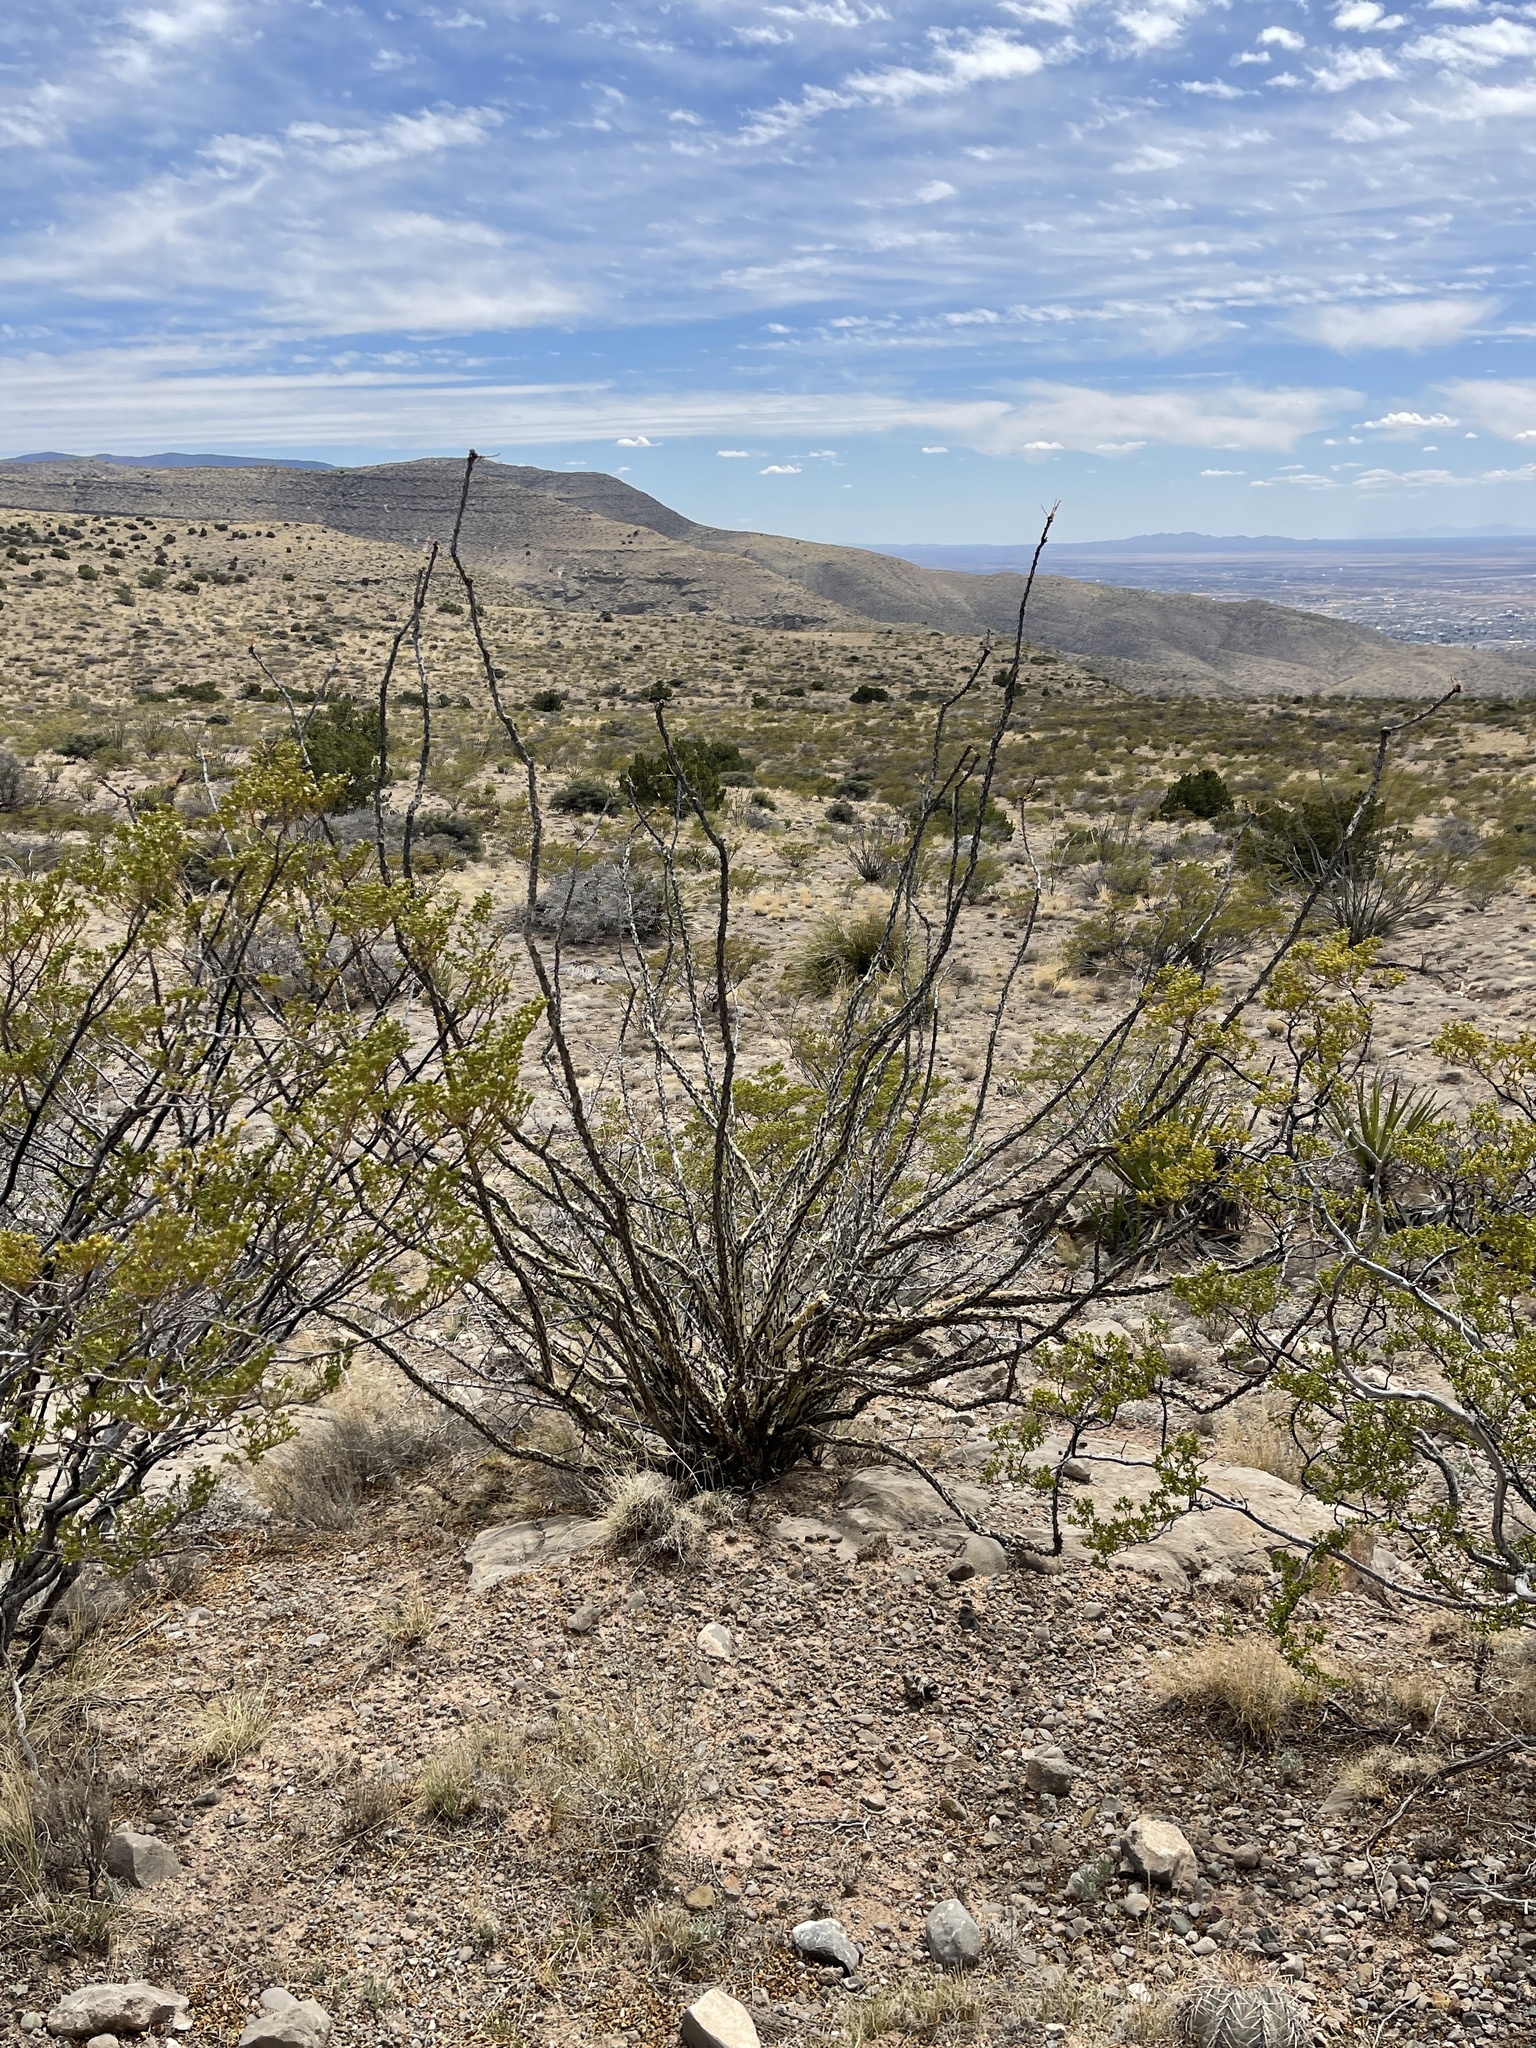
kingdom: Plantae
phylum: Tracheophyta
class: Magnoliopsida
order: Ericales
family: Fouquieriaceae
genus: Fouquieria
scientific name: Fouquieria splendens
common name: Vine-cactus
